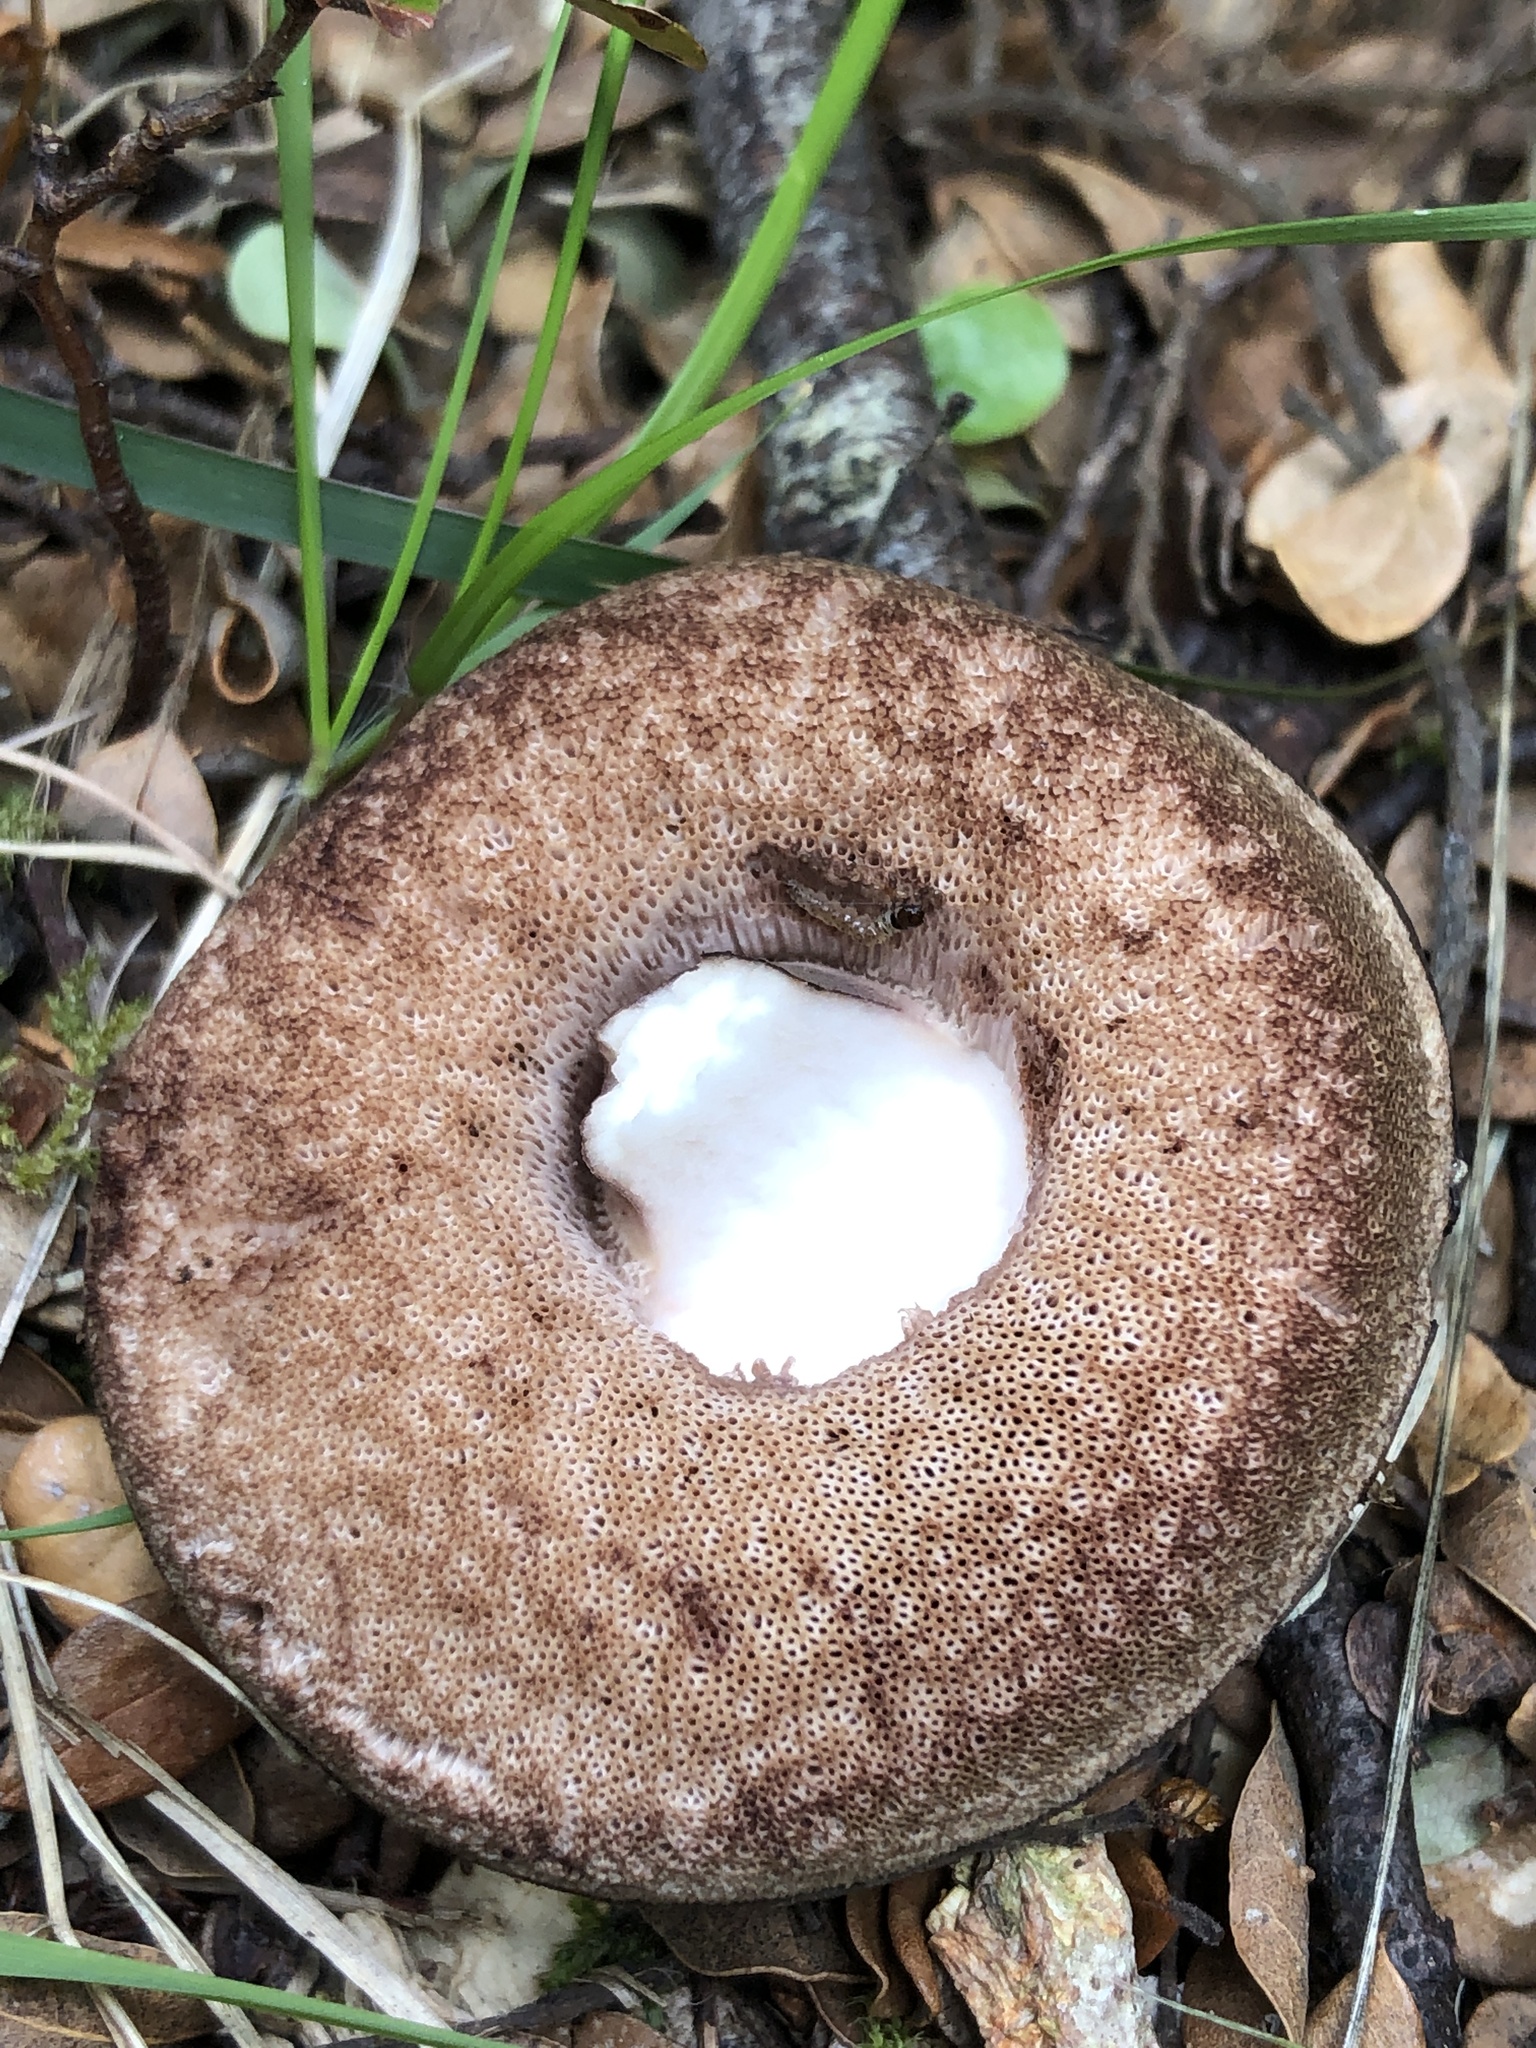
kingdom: Fungi
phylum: Basidiomycota
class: Agaricomycetes
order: Boletales
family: Boletaceae
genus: Porphyrellus
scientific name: Porphyrellus formosus
